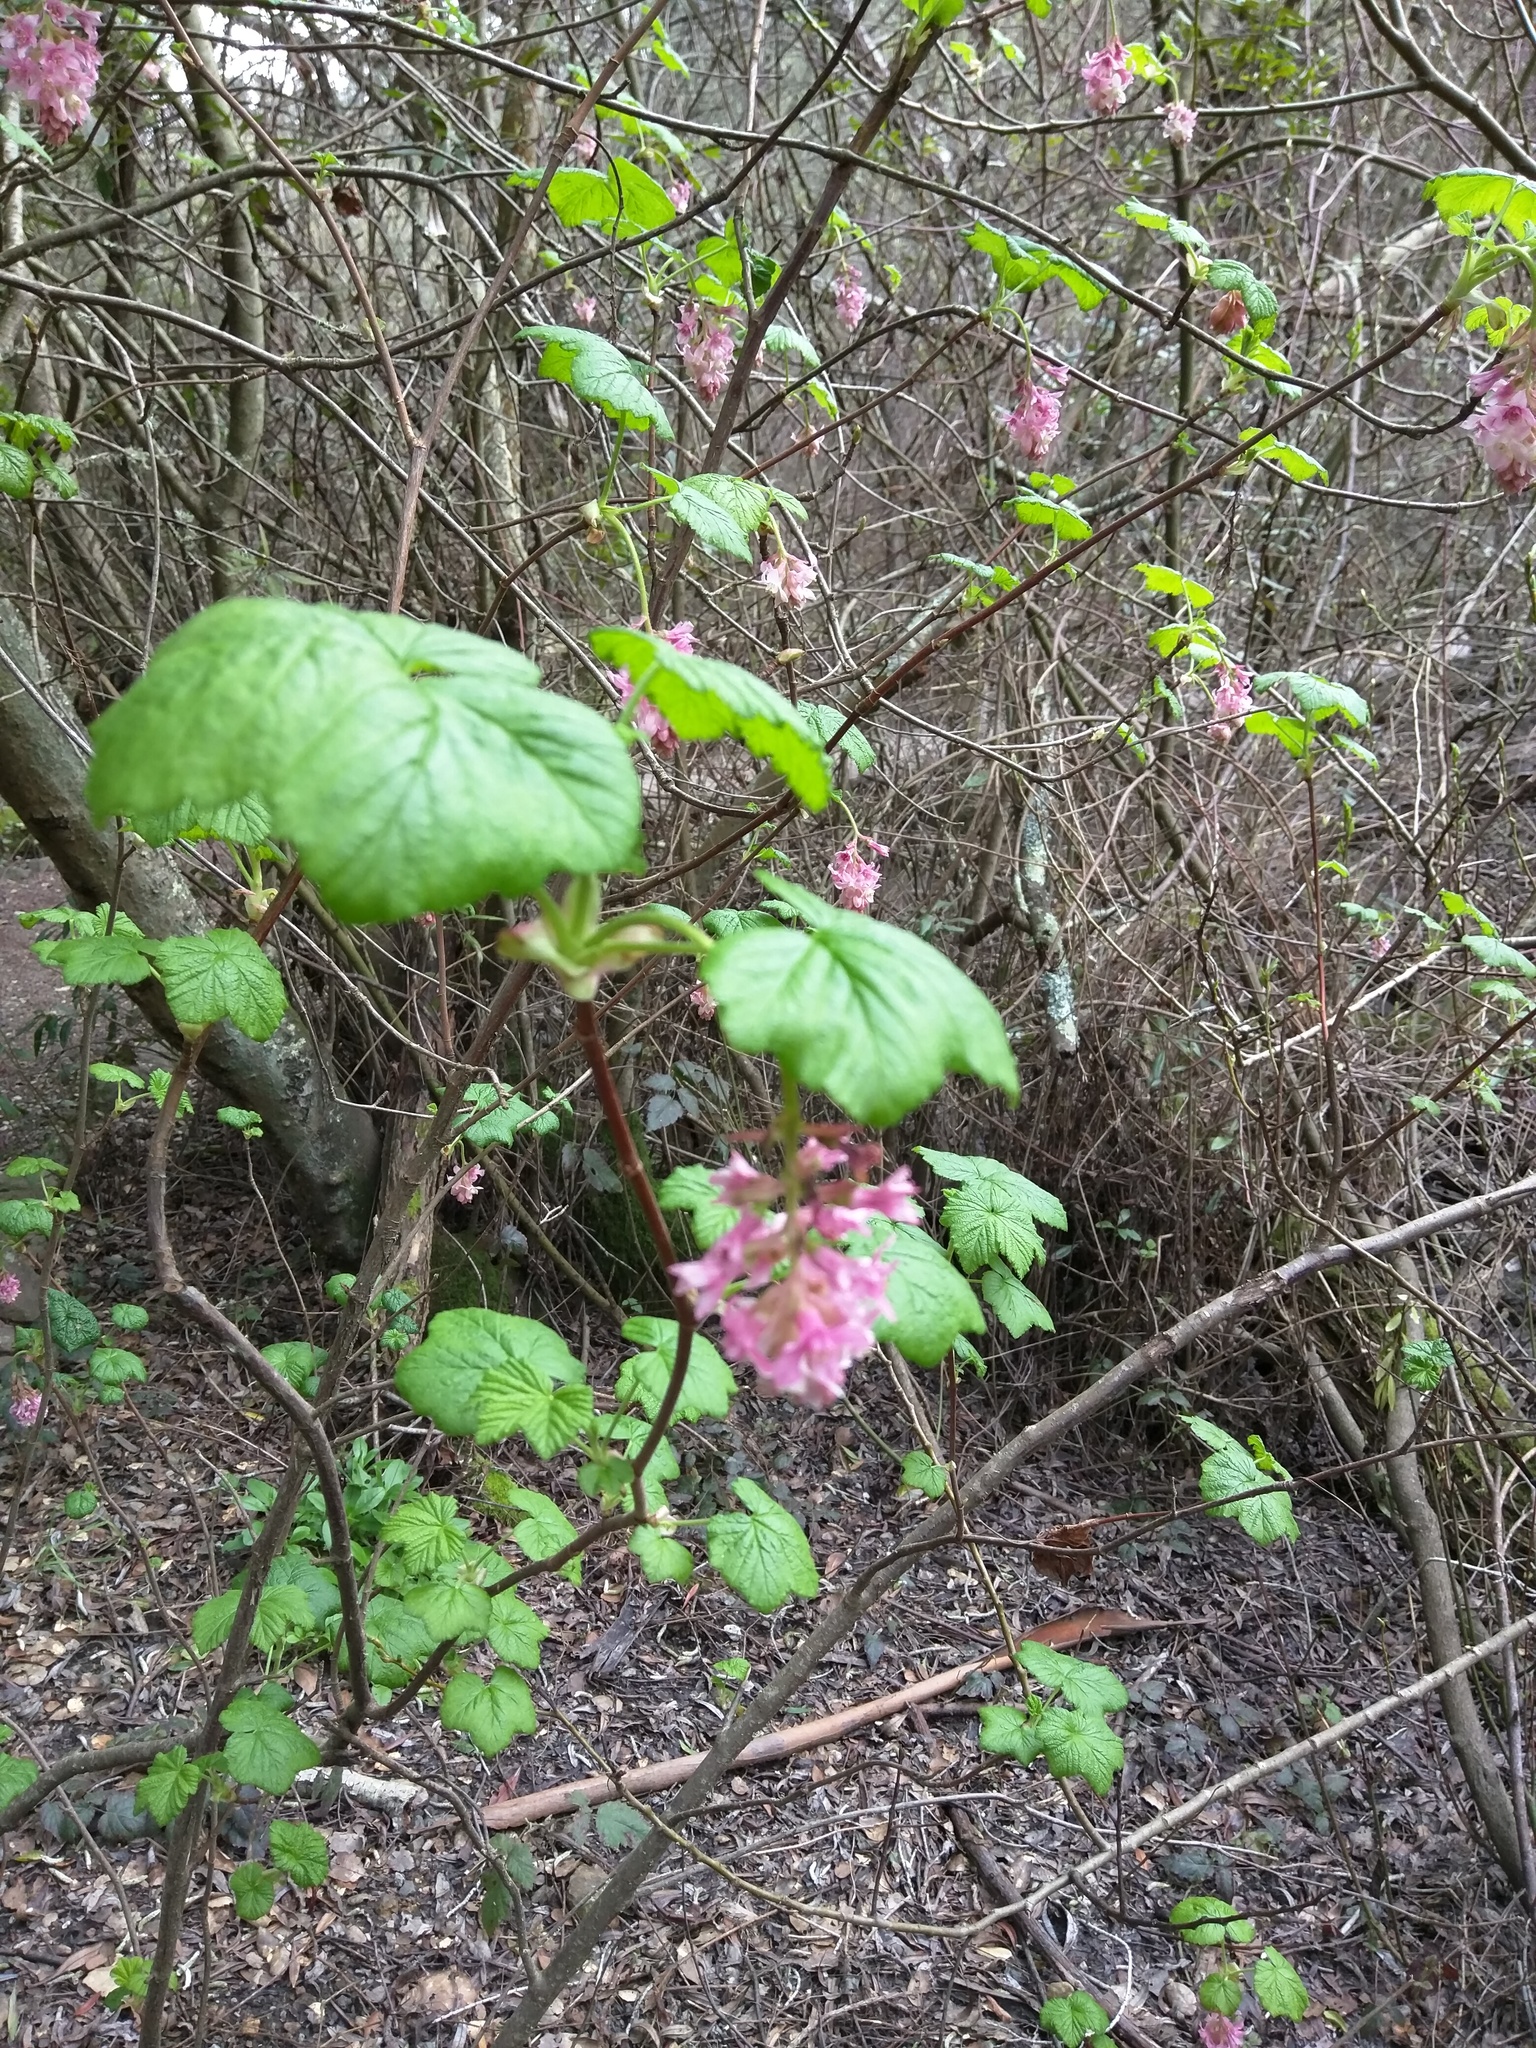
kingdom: Plantae
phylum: Tracheophyta
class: Magnoliopsida
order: Saxifragales
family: Grossulariaceae
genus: Ribes
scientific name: Ribes sanguineum
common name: Flowering currant
